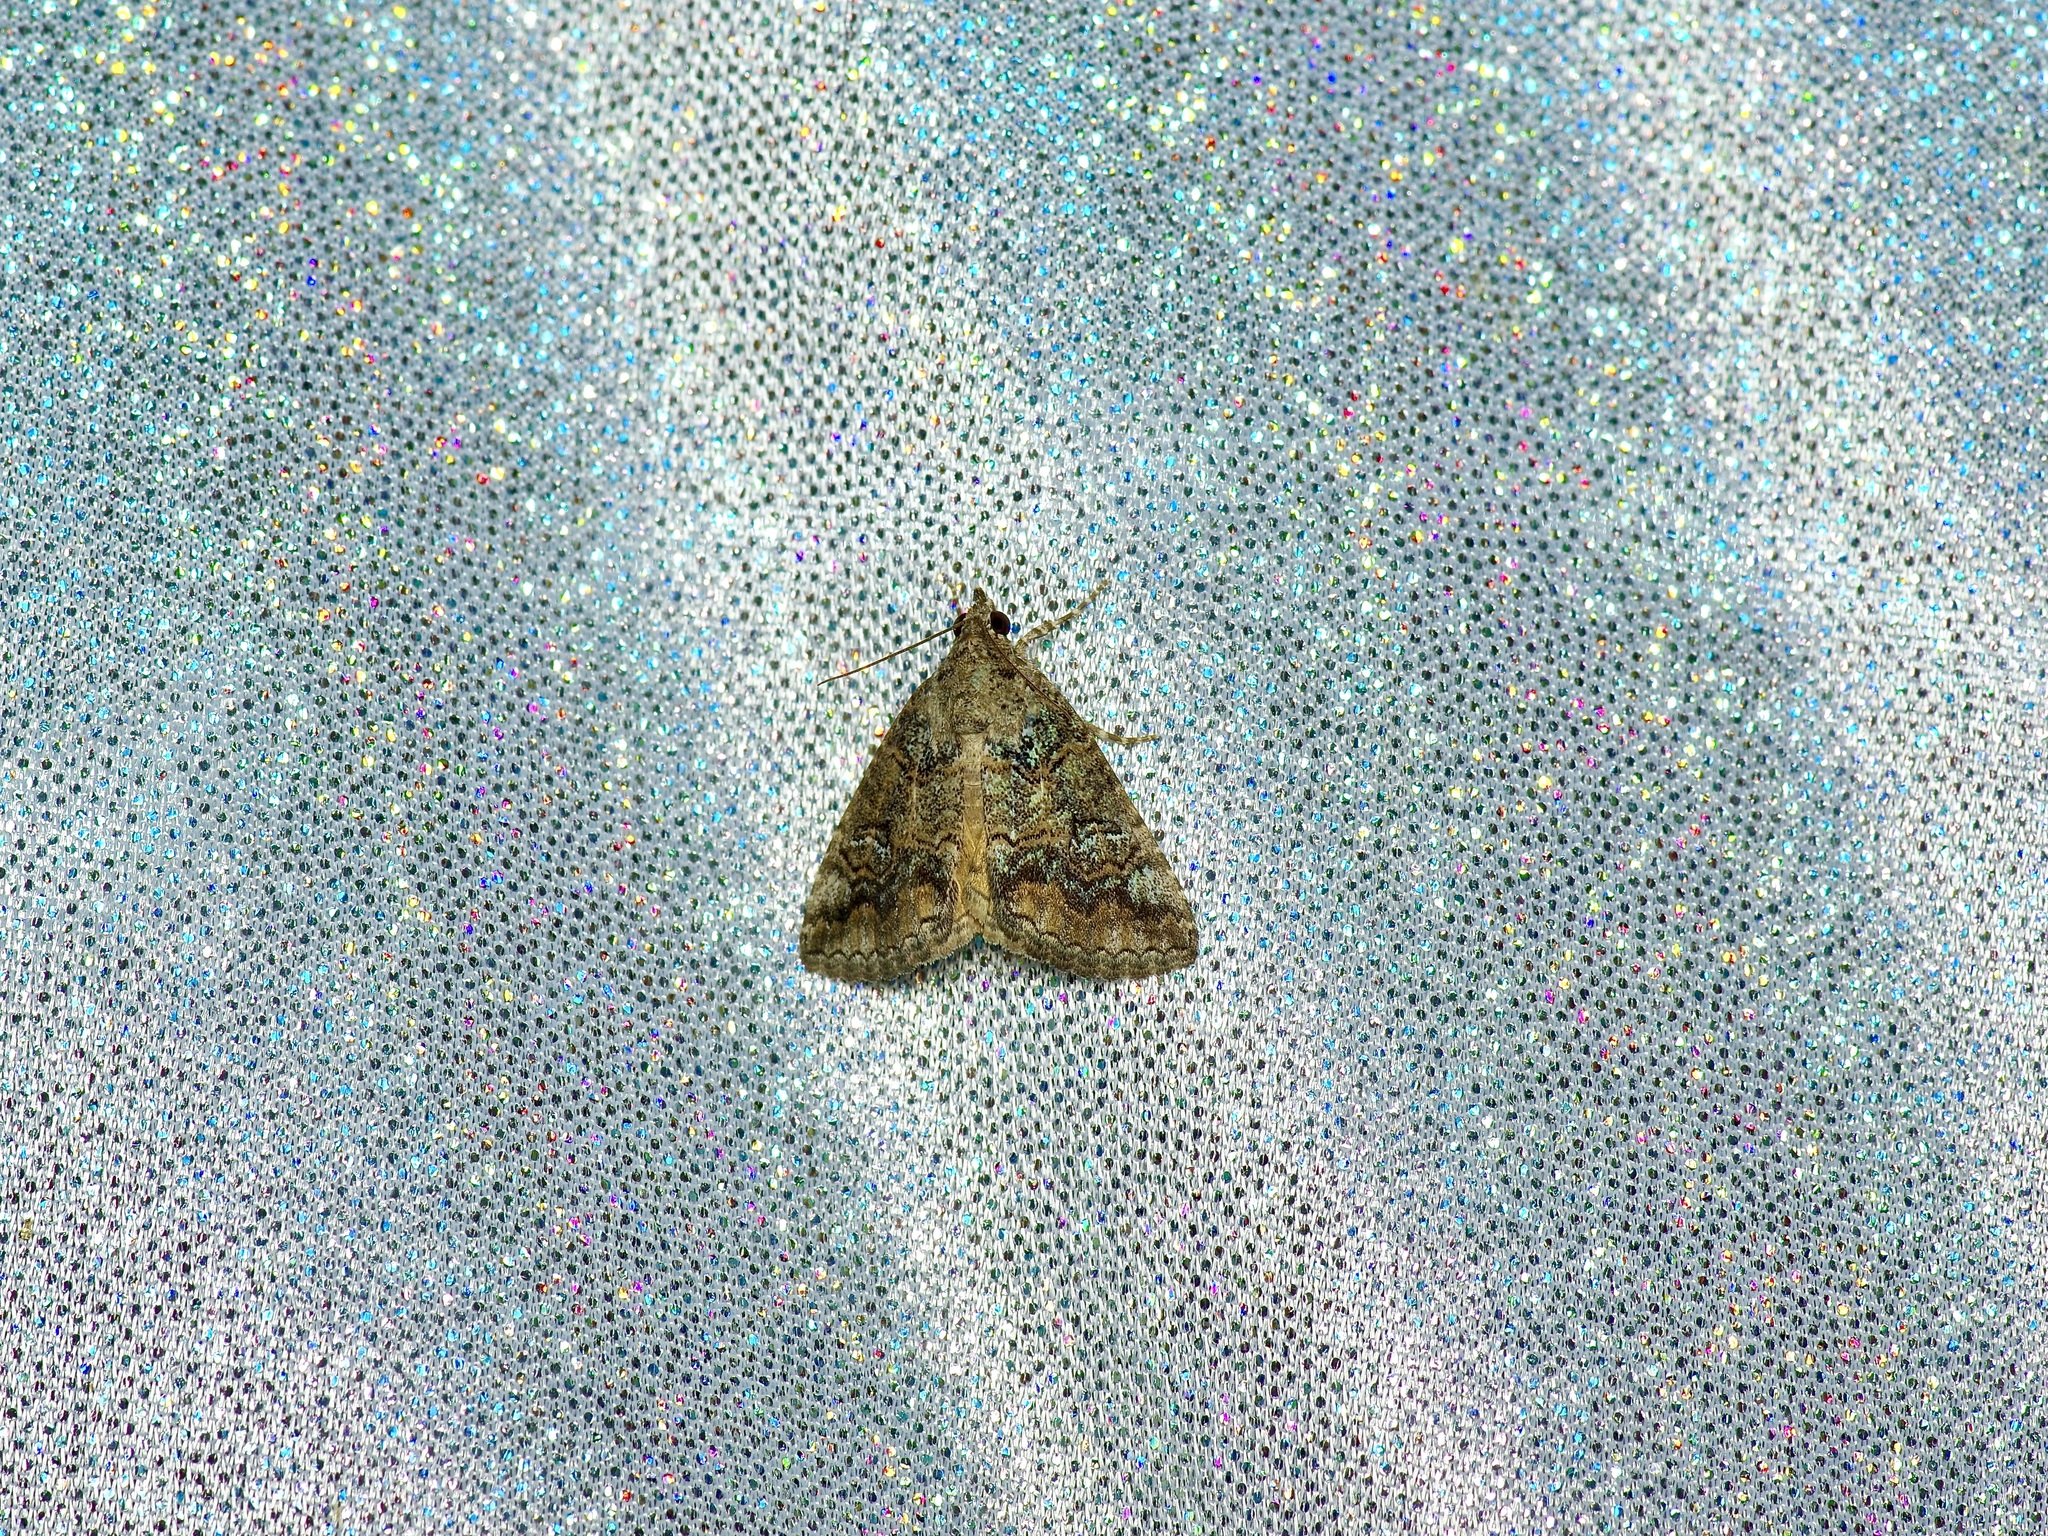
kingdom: Animalia
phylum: Arthropoda
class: Insecta
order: Lepidoptera
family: Erebidae
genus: Eubolina
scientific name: Eubolina impartialis
